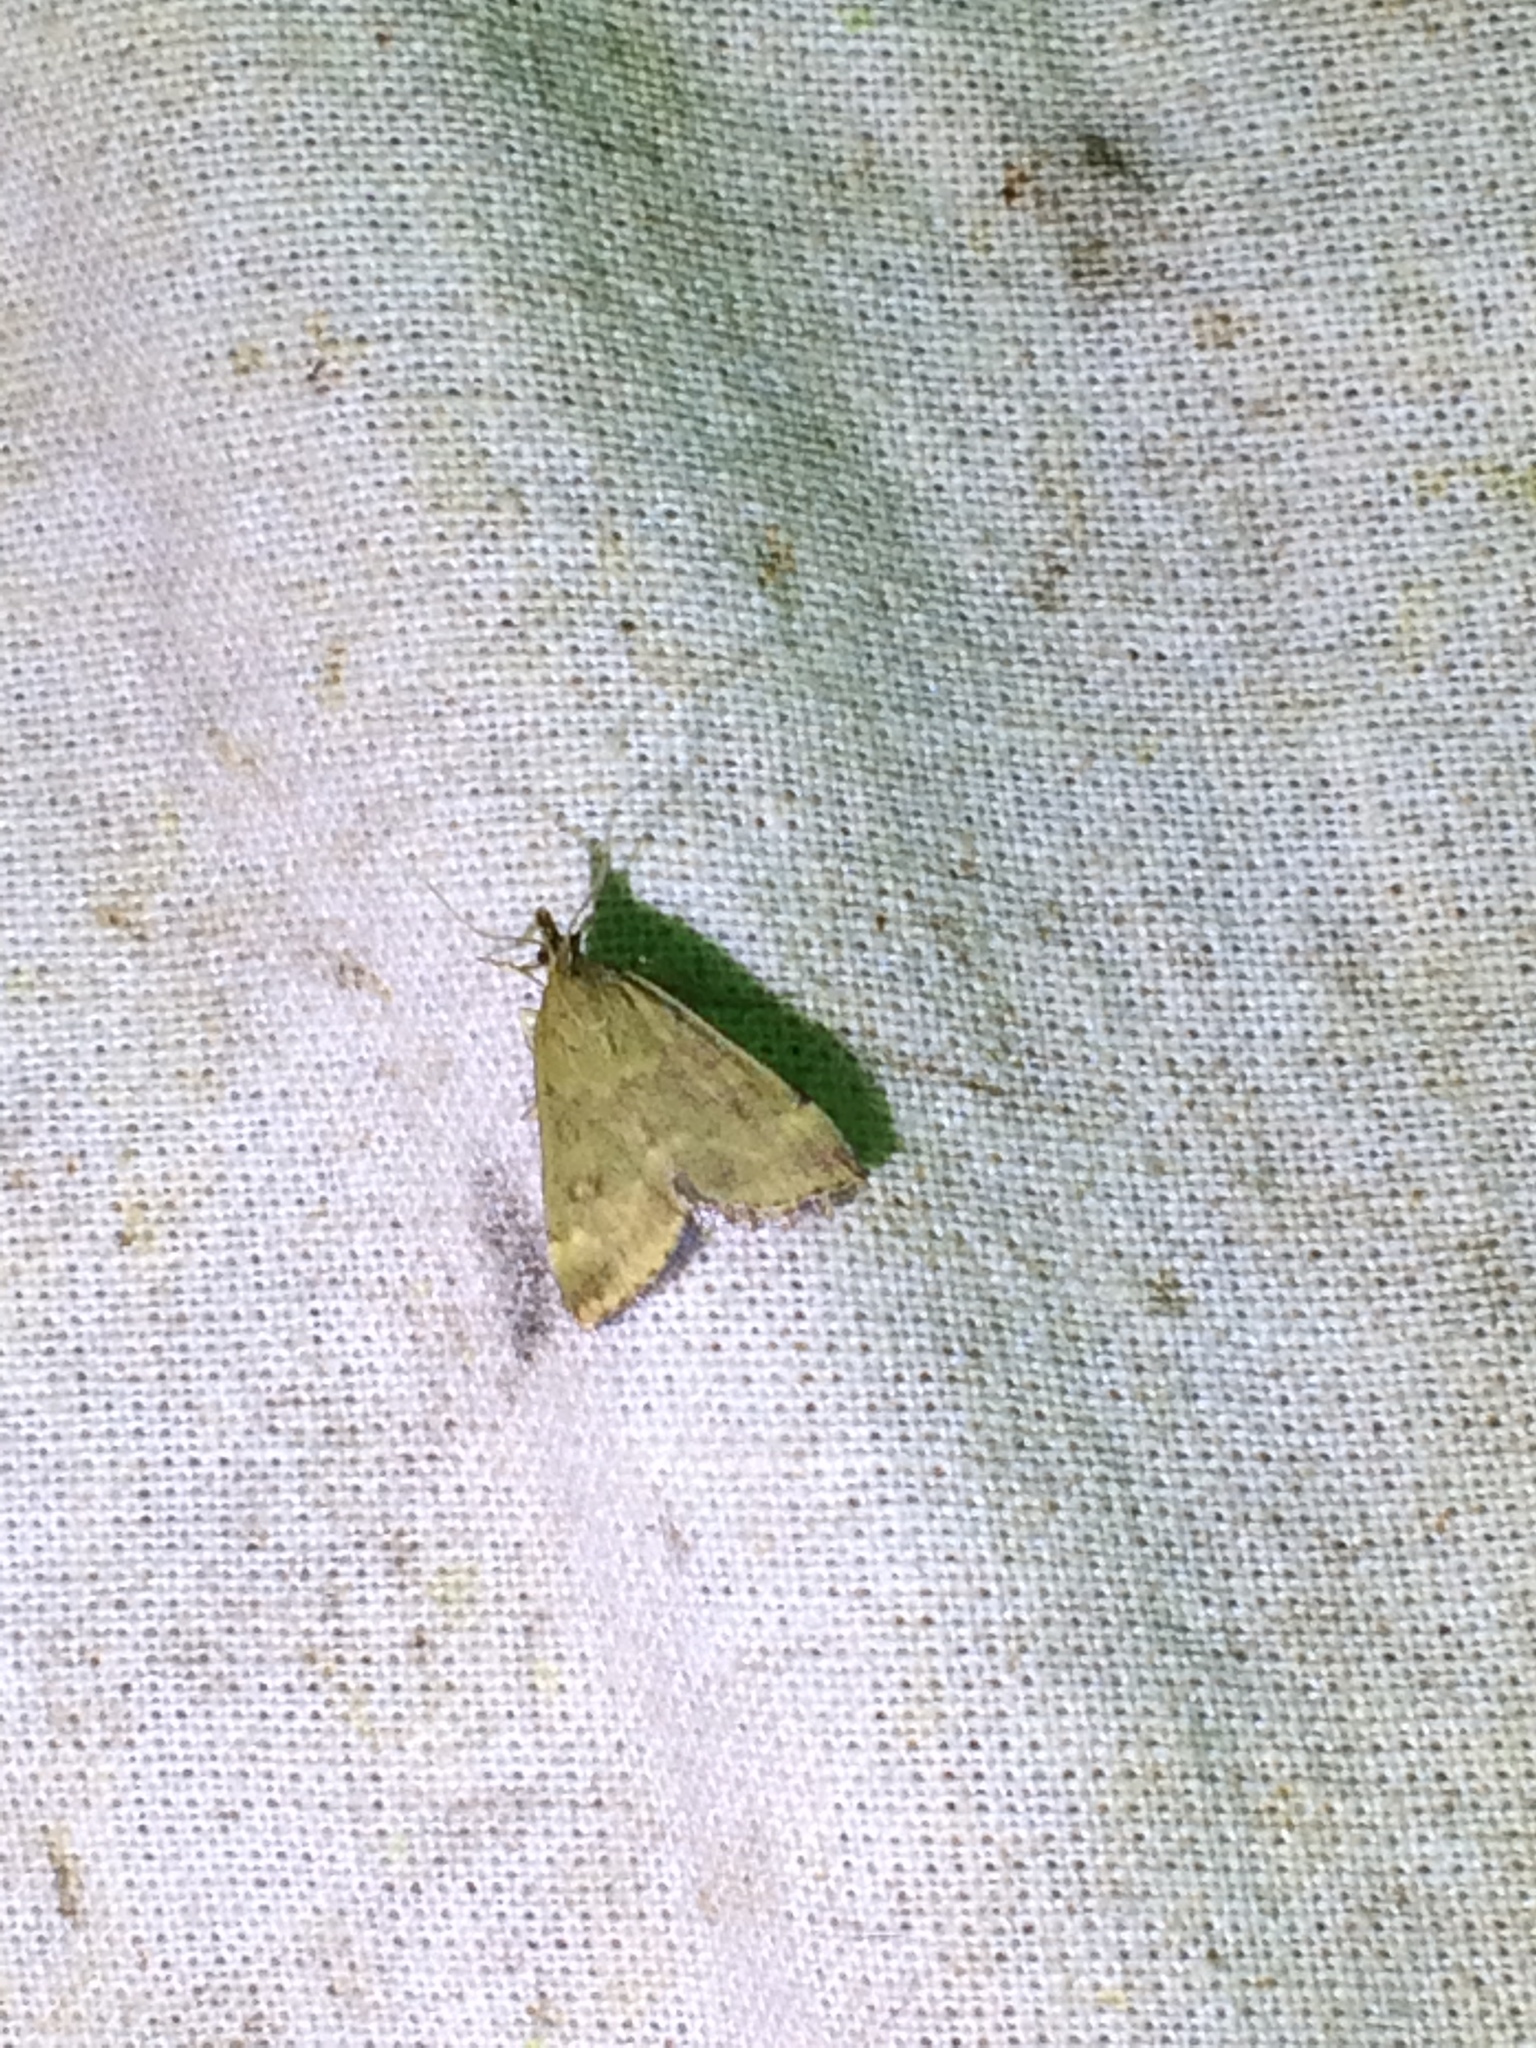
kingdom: Animalia
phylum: Arthropoda
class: Insecta
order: Lepidoptera
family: Crambidae
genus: Pyrausta
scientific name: Pyrausta despicata
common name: Straw-barred pearl
